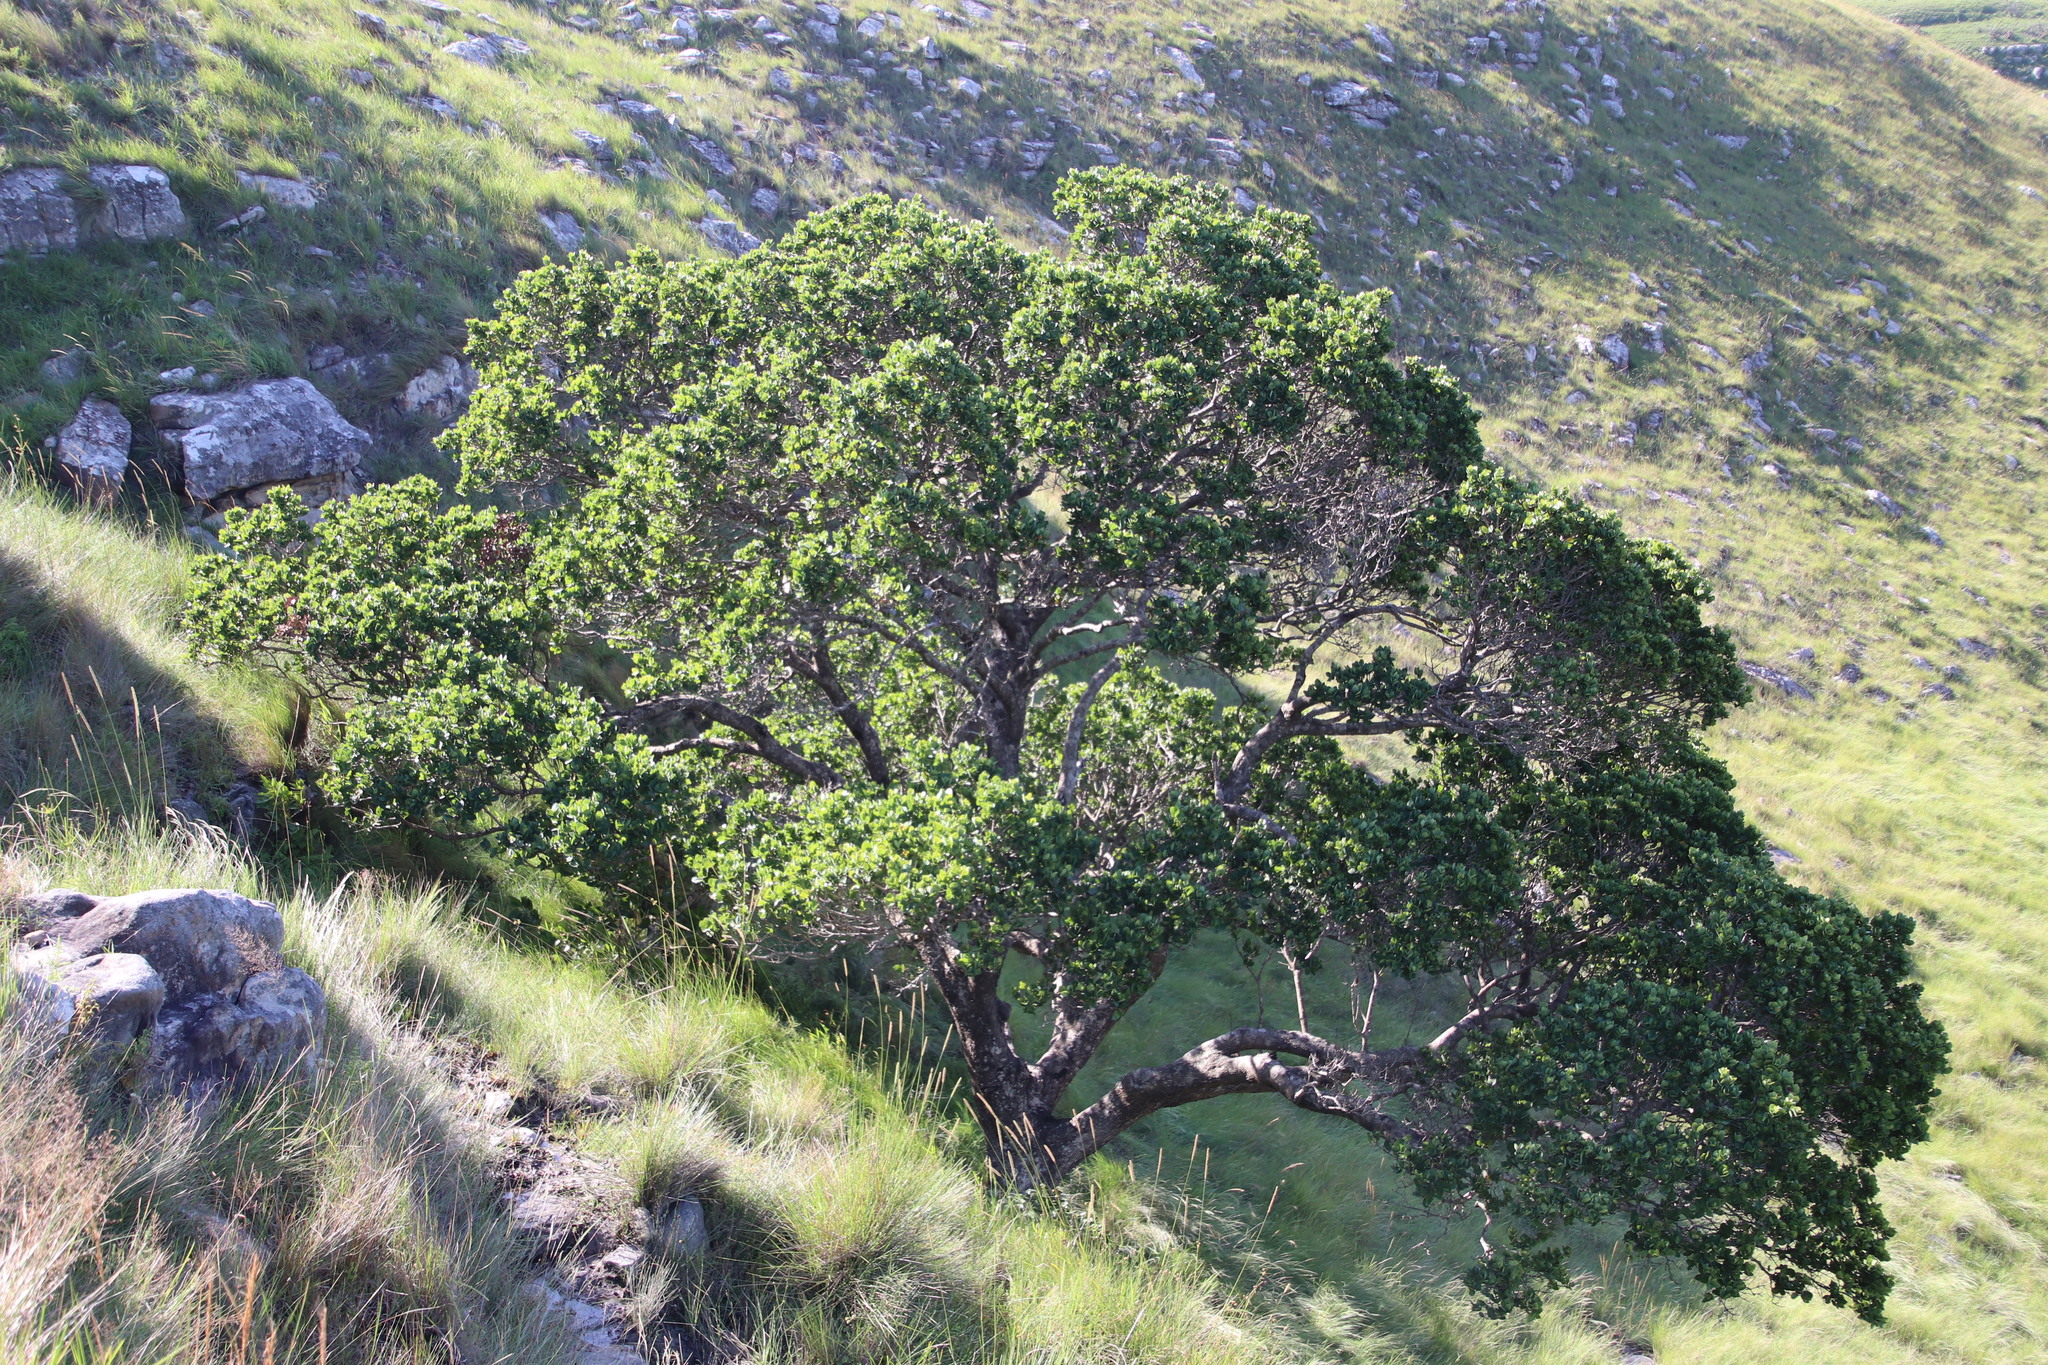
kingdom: Plantae
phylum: Tracheophyta
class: Magnoliopsida
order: Myrtales
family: Myrtaceae
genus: Syzygium
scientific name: Syzygium cordatum
